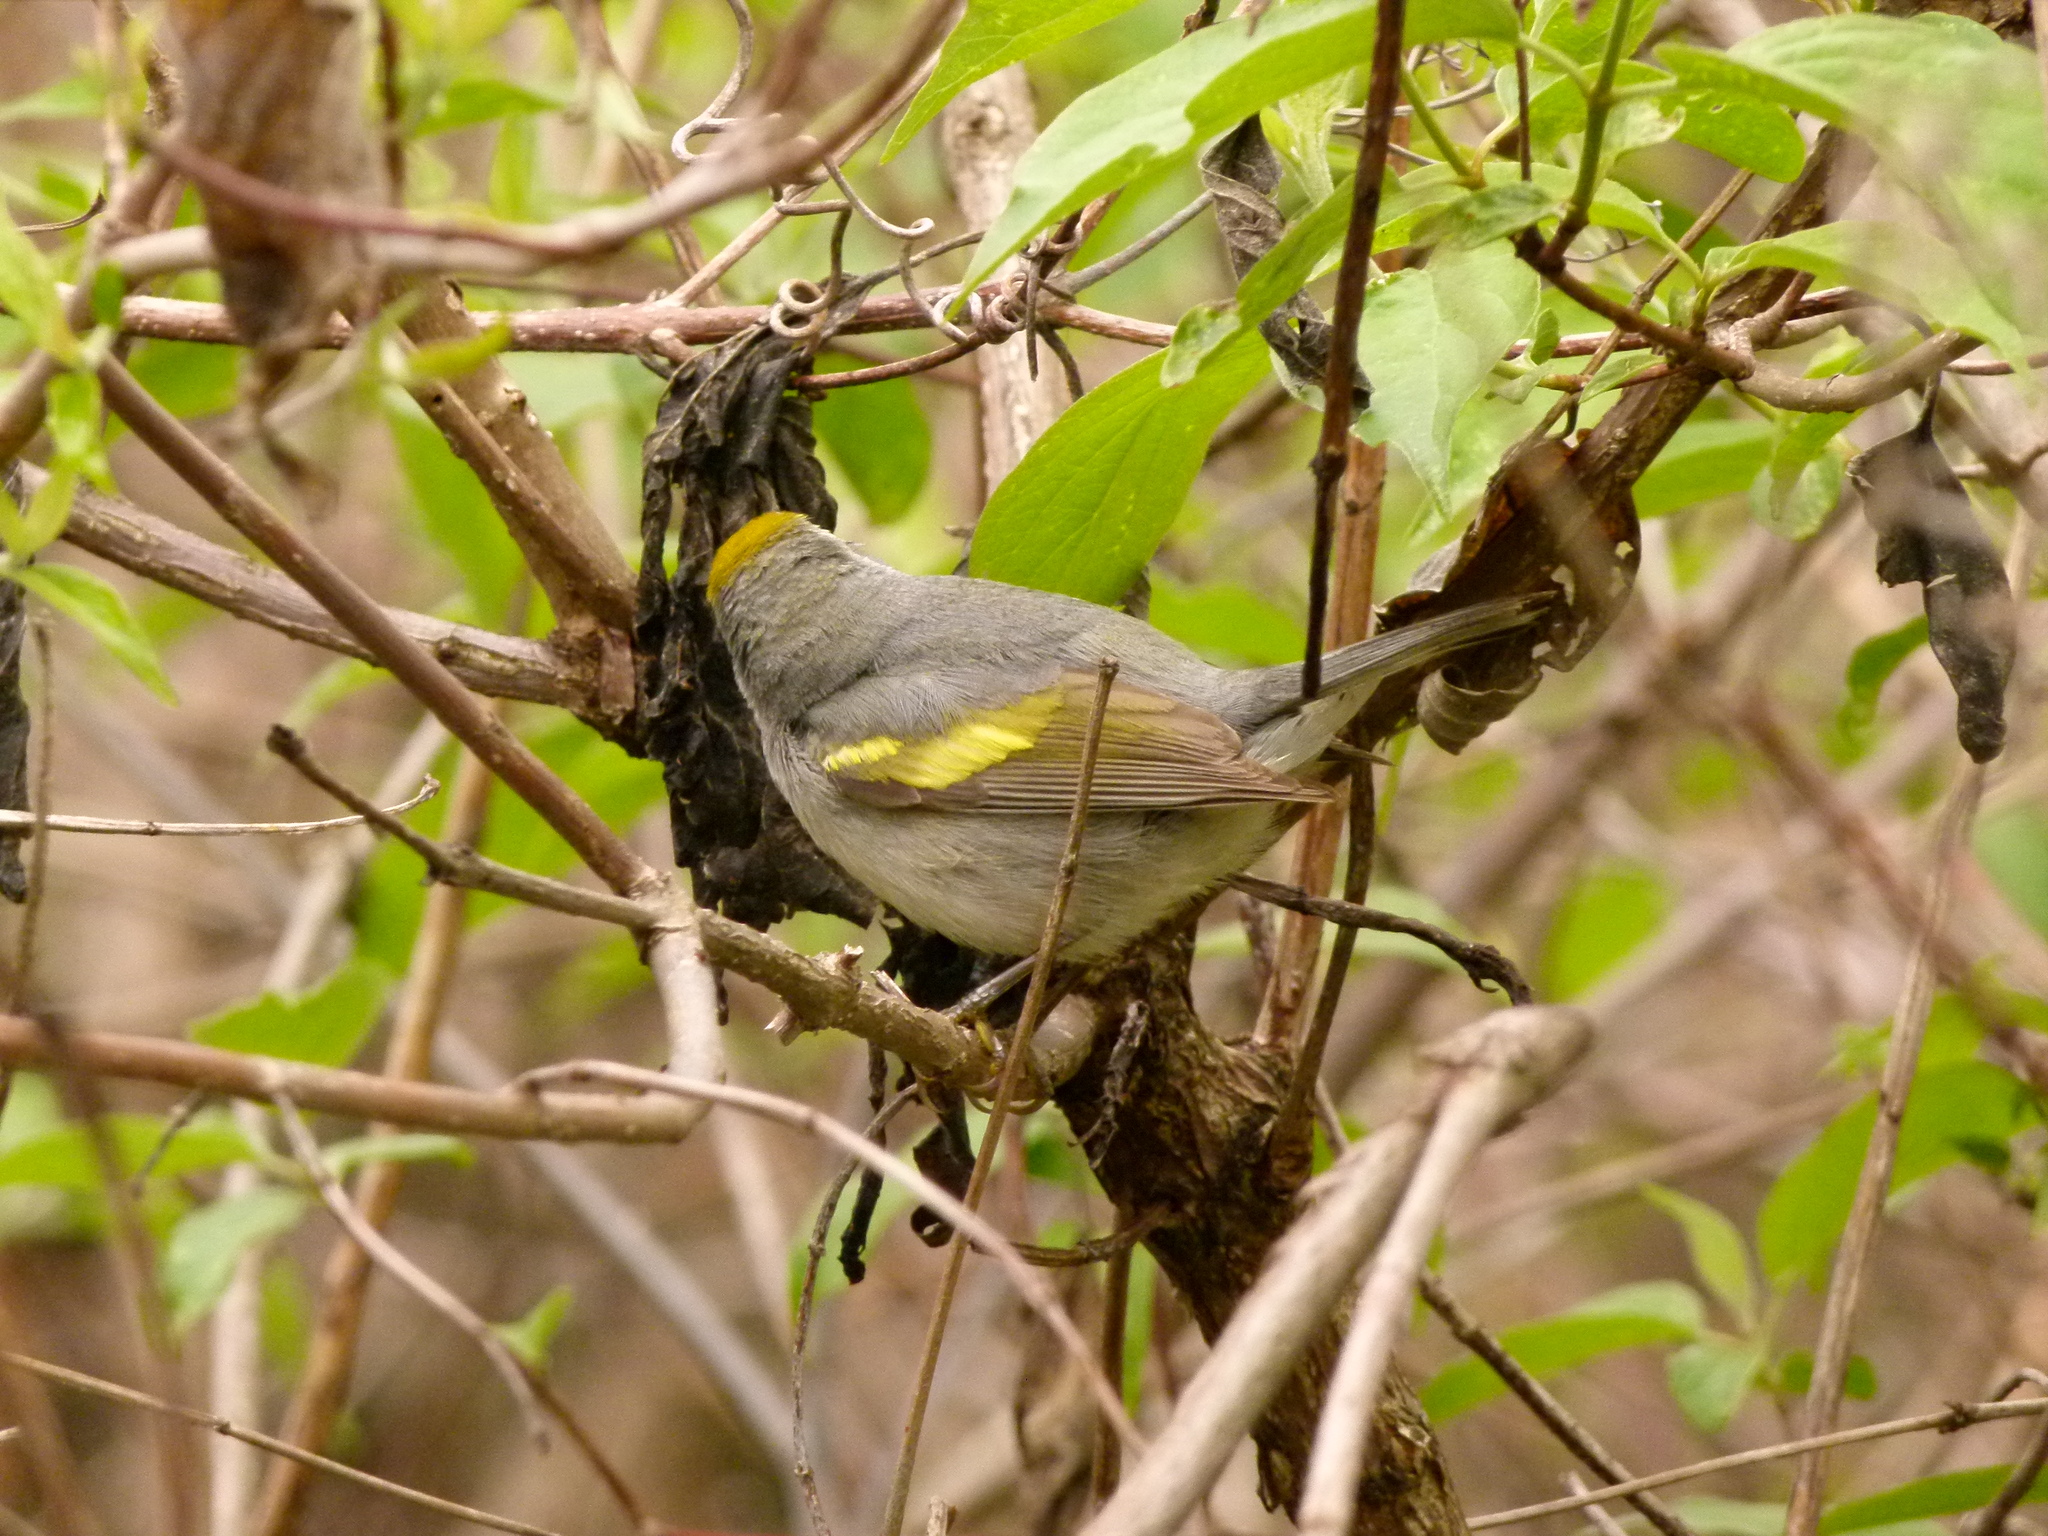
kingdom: Animalia
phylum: Chordata
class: Aves
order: Passeriformes
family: Parulidae
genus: Vermivora
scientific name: Vermivora chrysoptera
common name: Golden-winged warbler
